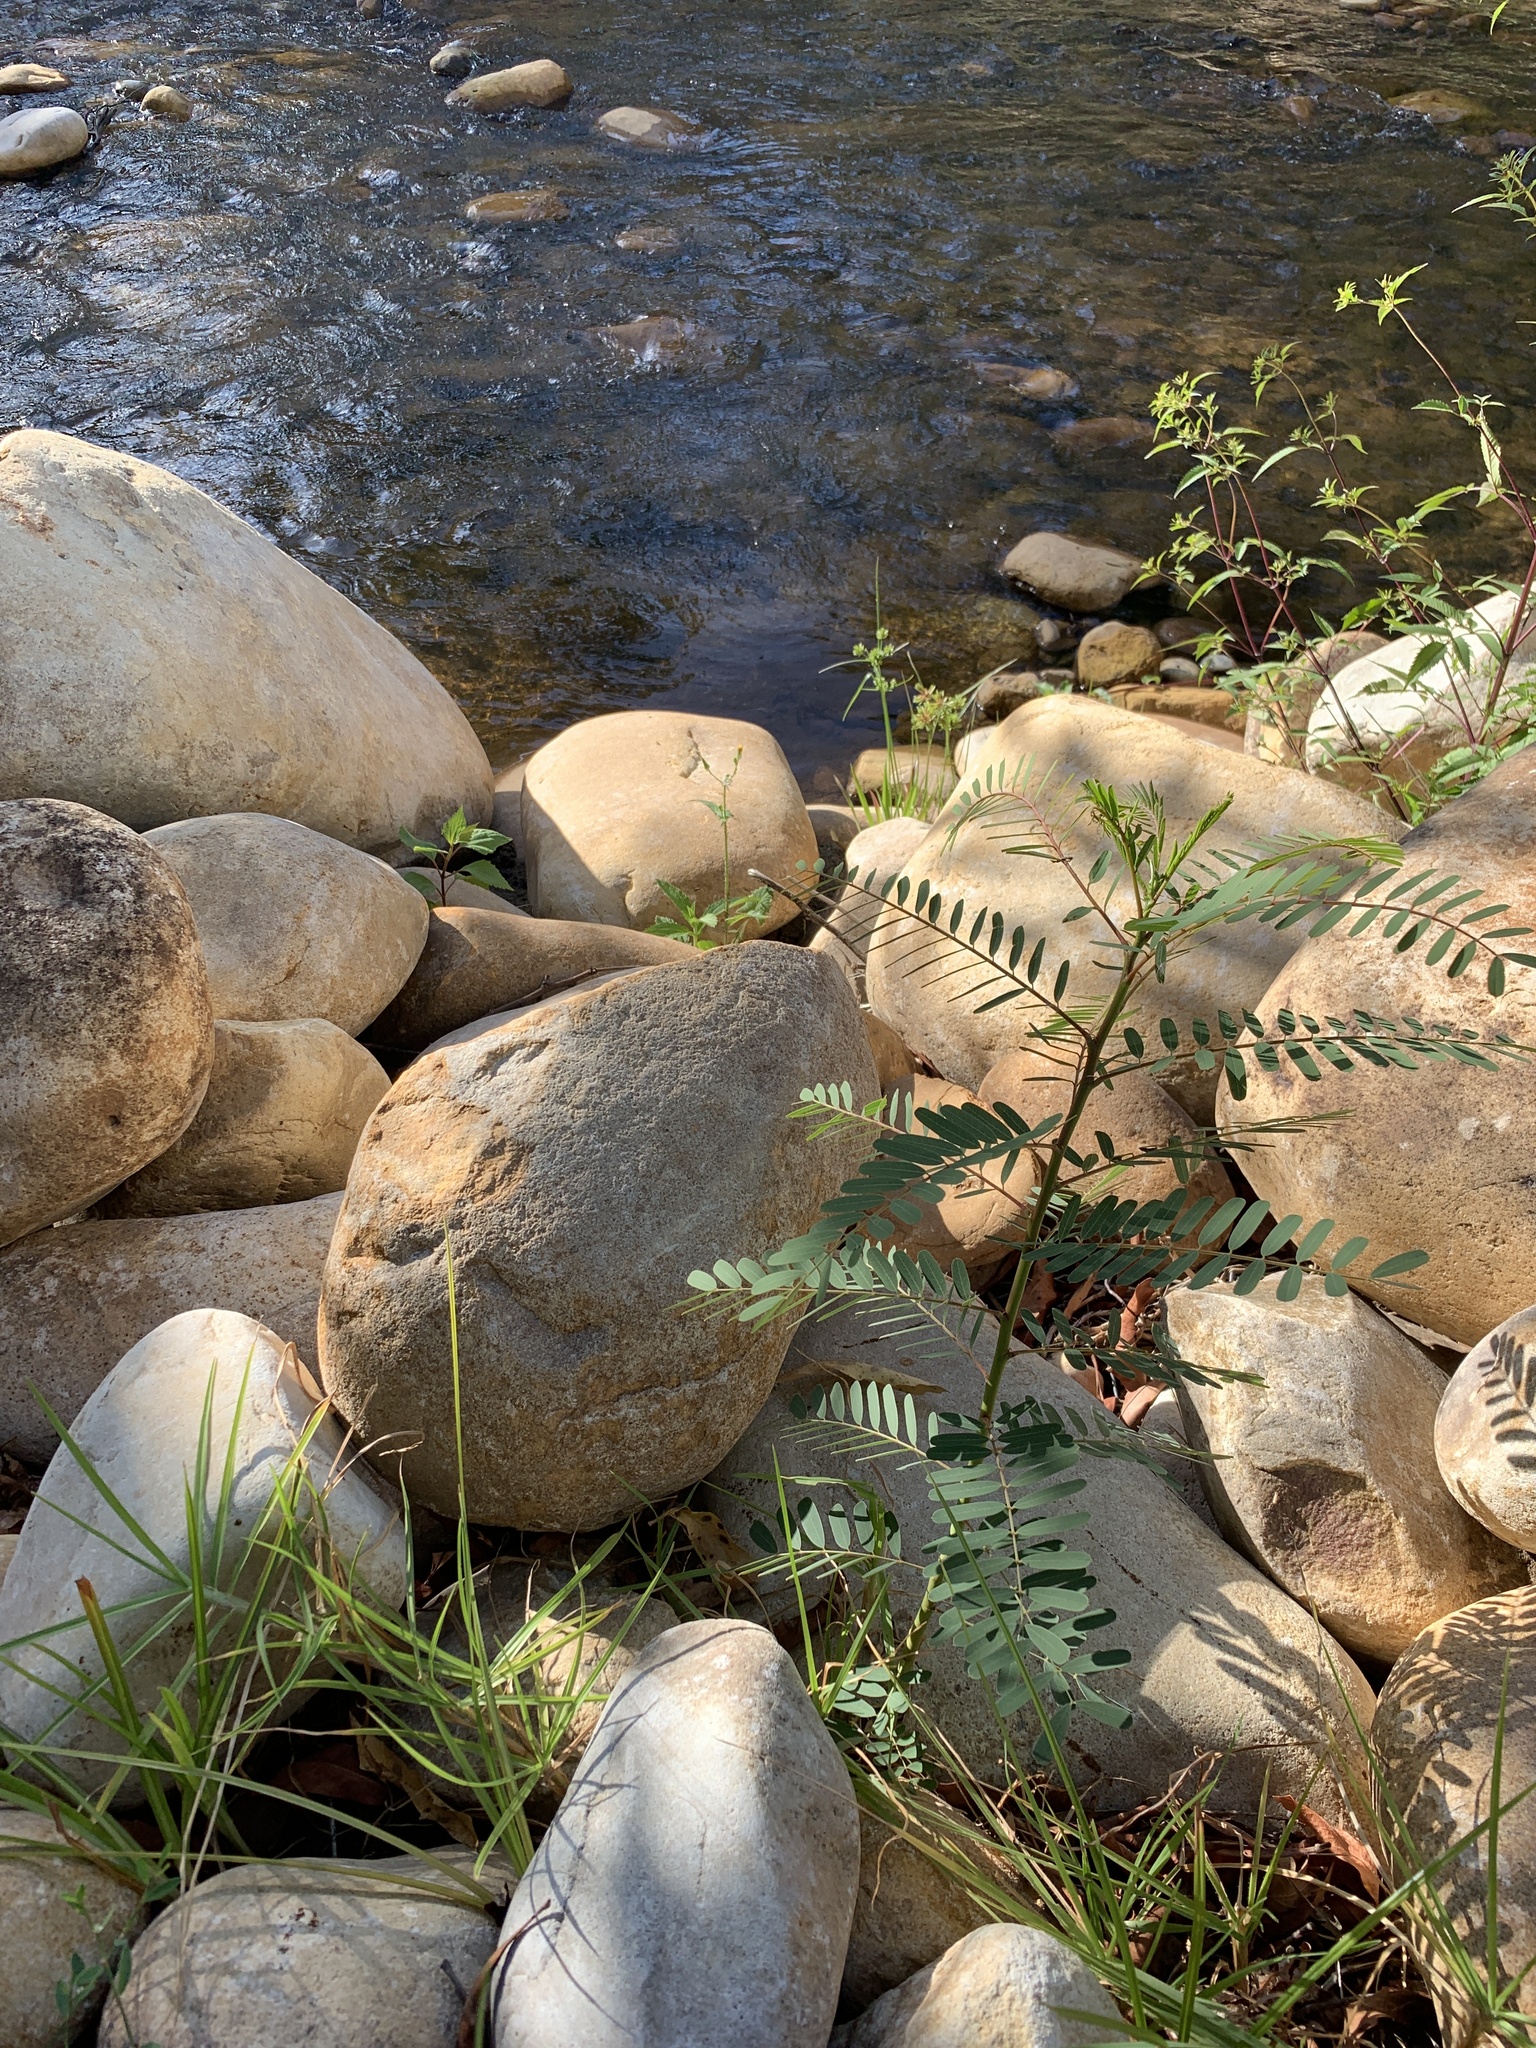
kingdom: Plantae
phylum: Tracheophyta
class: Magnoliopsida
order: Fabales
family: Fabaceae
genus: Sesbania
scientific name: Sesbania punicea
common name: Rattlebox
